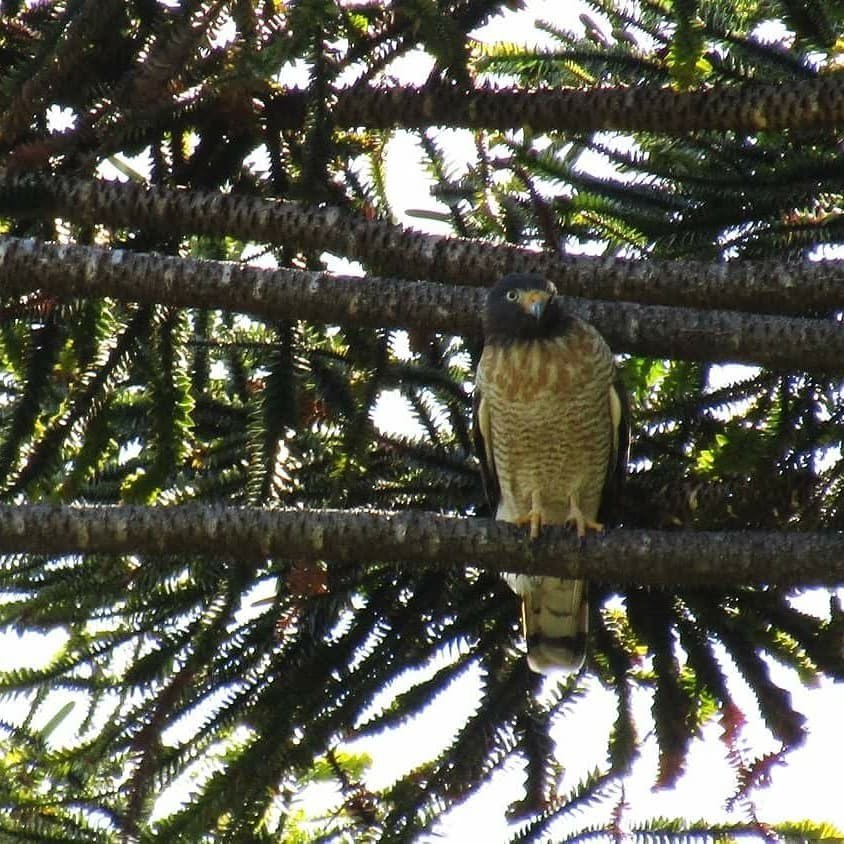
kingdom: Animalia
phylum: Chordata
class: Aves
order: Accipitriformes
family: Accipitridae
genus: Rupornis
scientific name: Rupornis magnirostris
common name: Roadside hawk
